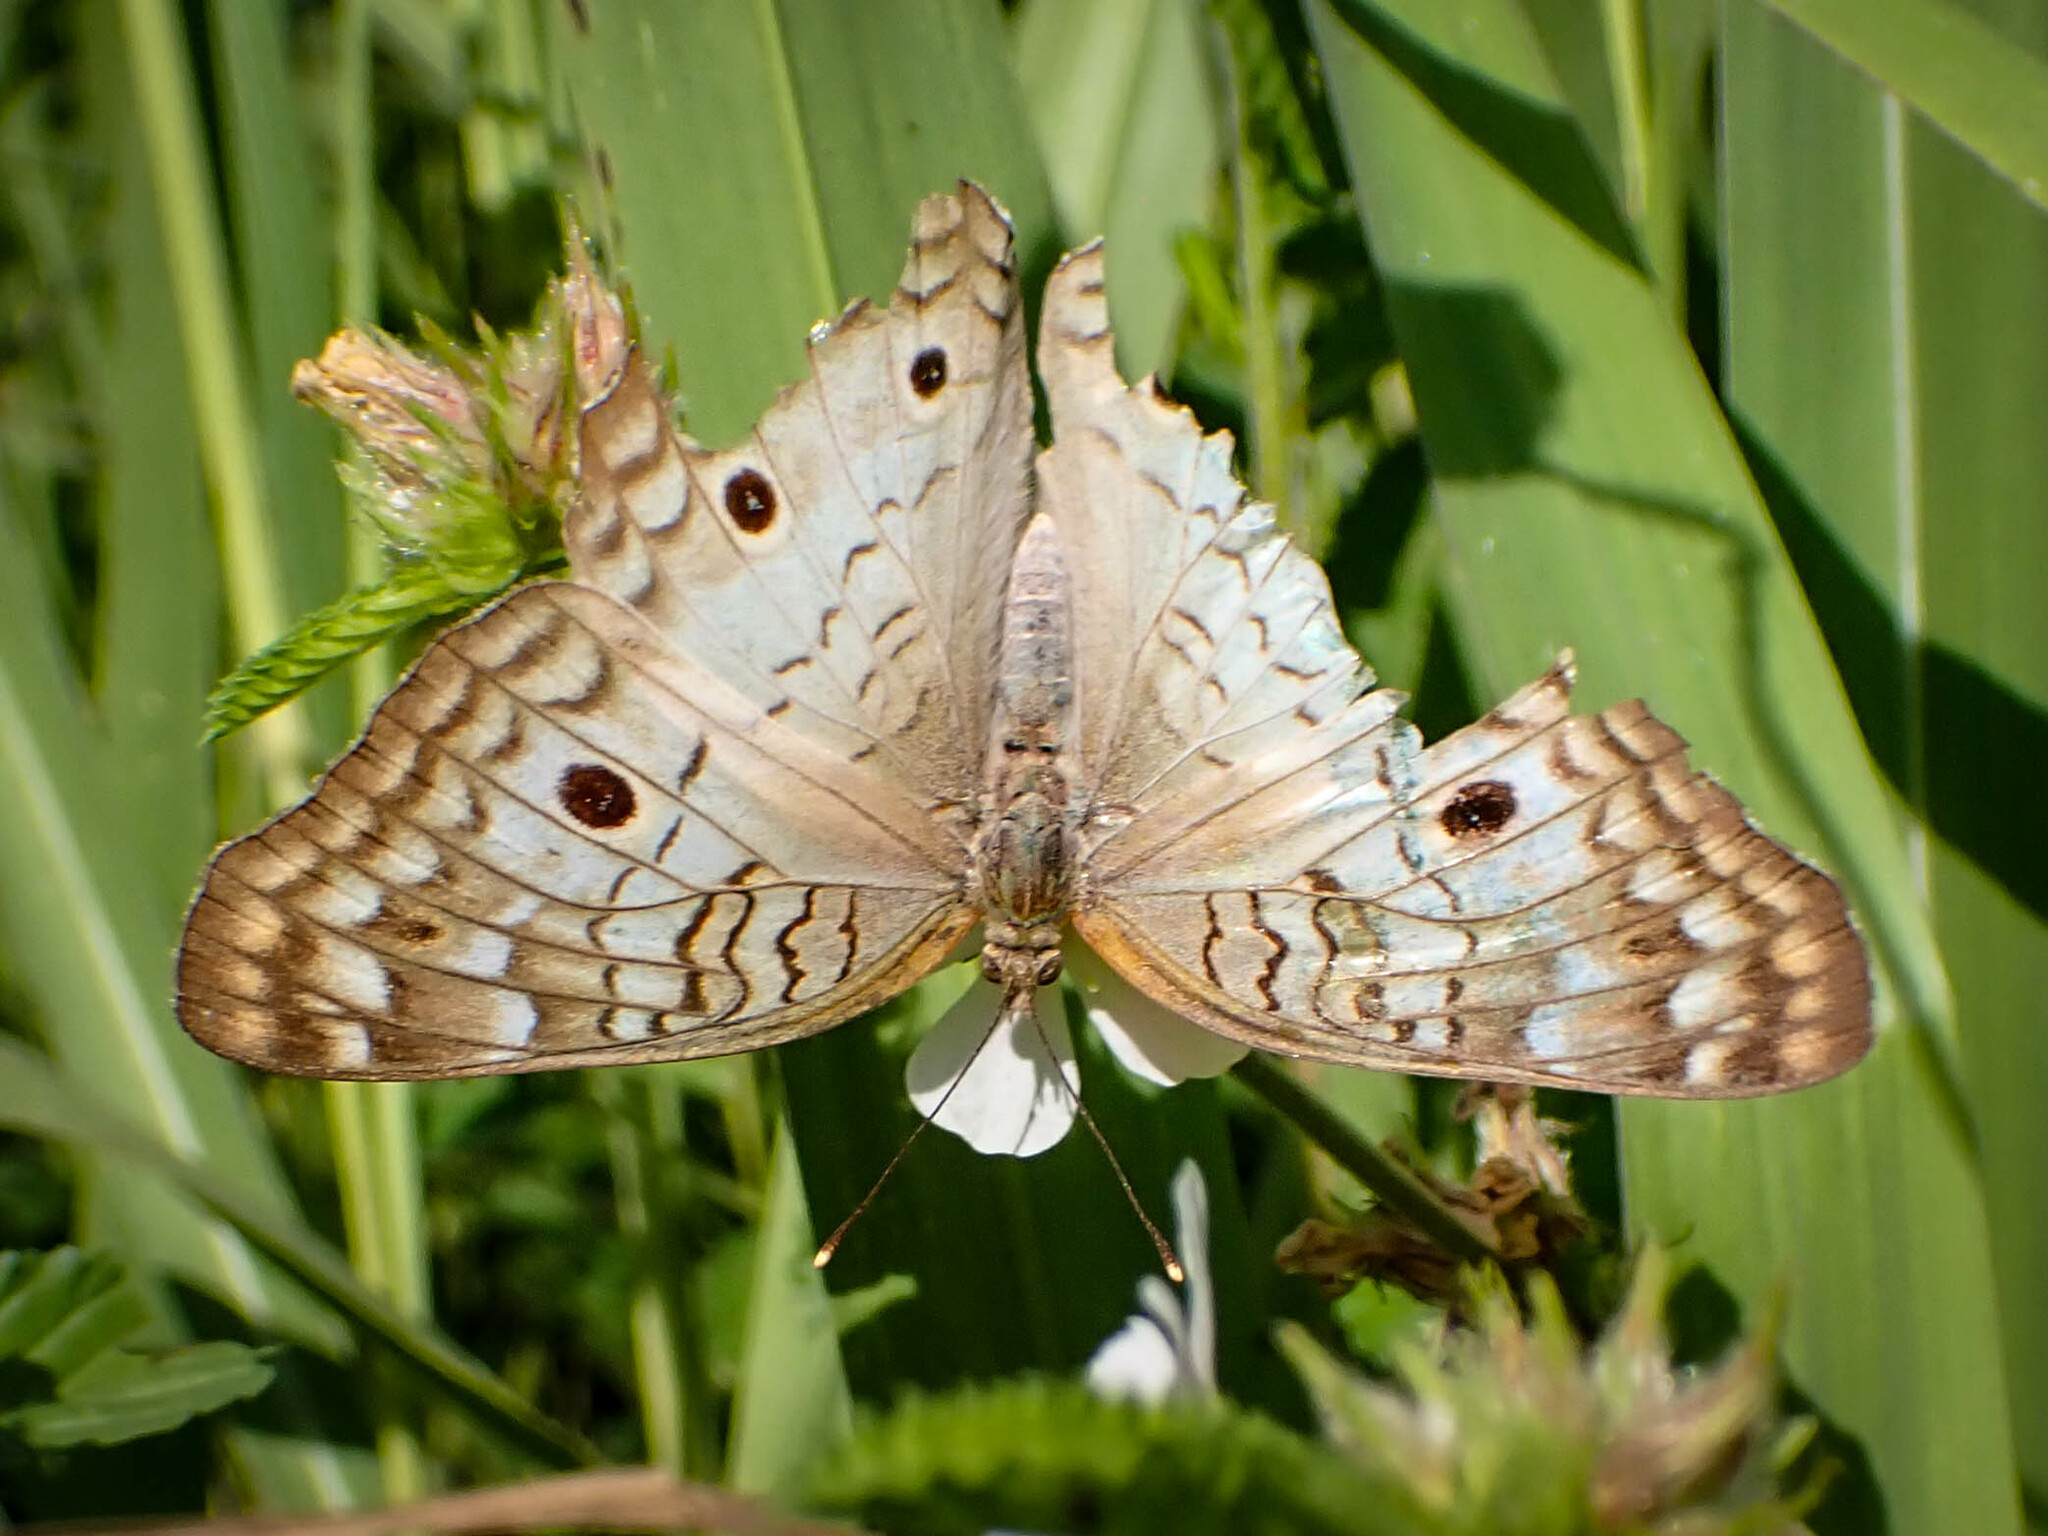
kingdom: Animalia
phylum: Arthropoda
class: Insecta
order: Lepidoptera
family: Nymphalidae
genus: Anartia
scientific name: Anartia jatrophae
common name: White peacock
